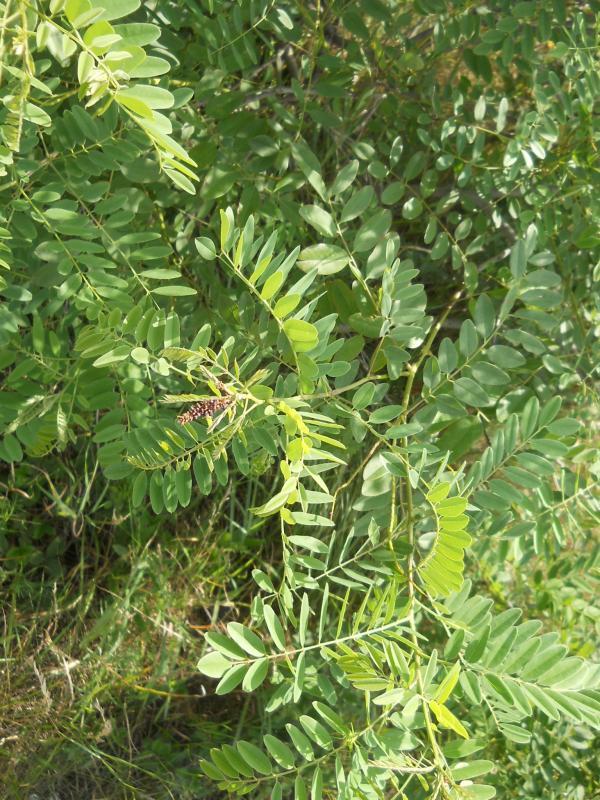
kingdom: Plantae
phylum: Tracheophyta
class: Magnoliopsida
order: Fabales
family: Fabaceae
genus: Amorpha
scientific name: Amorpha fruticosa
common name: False indigo
